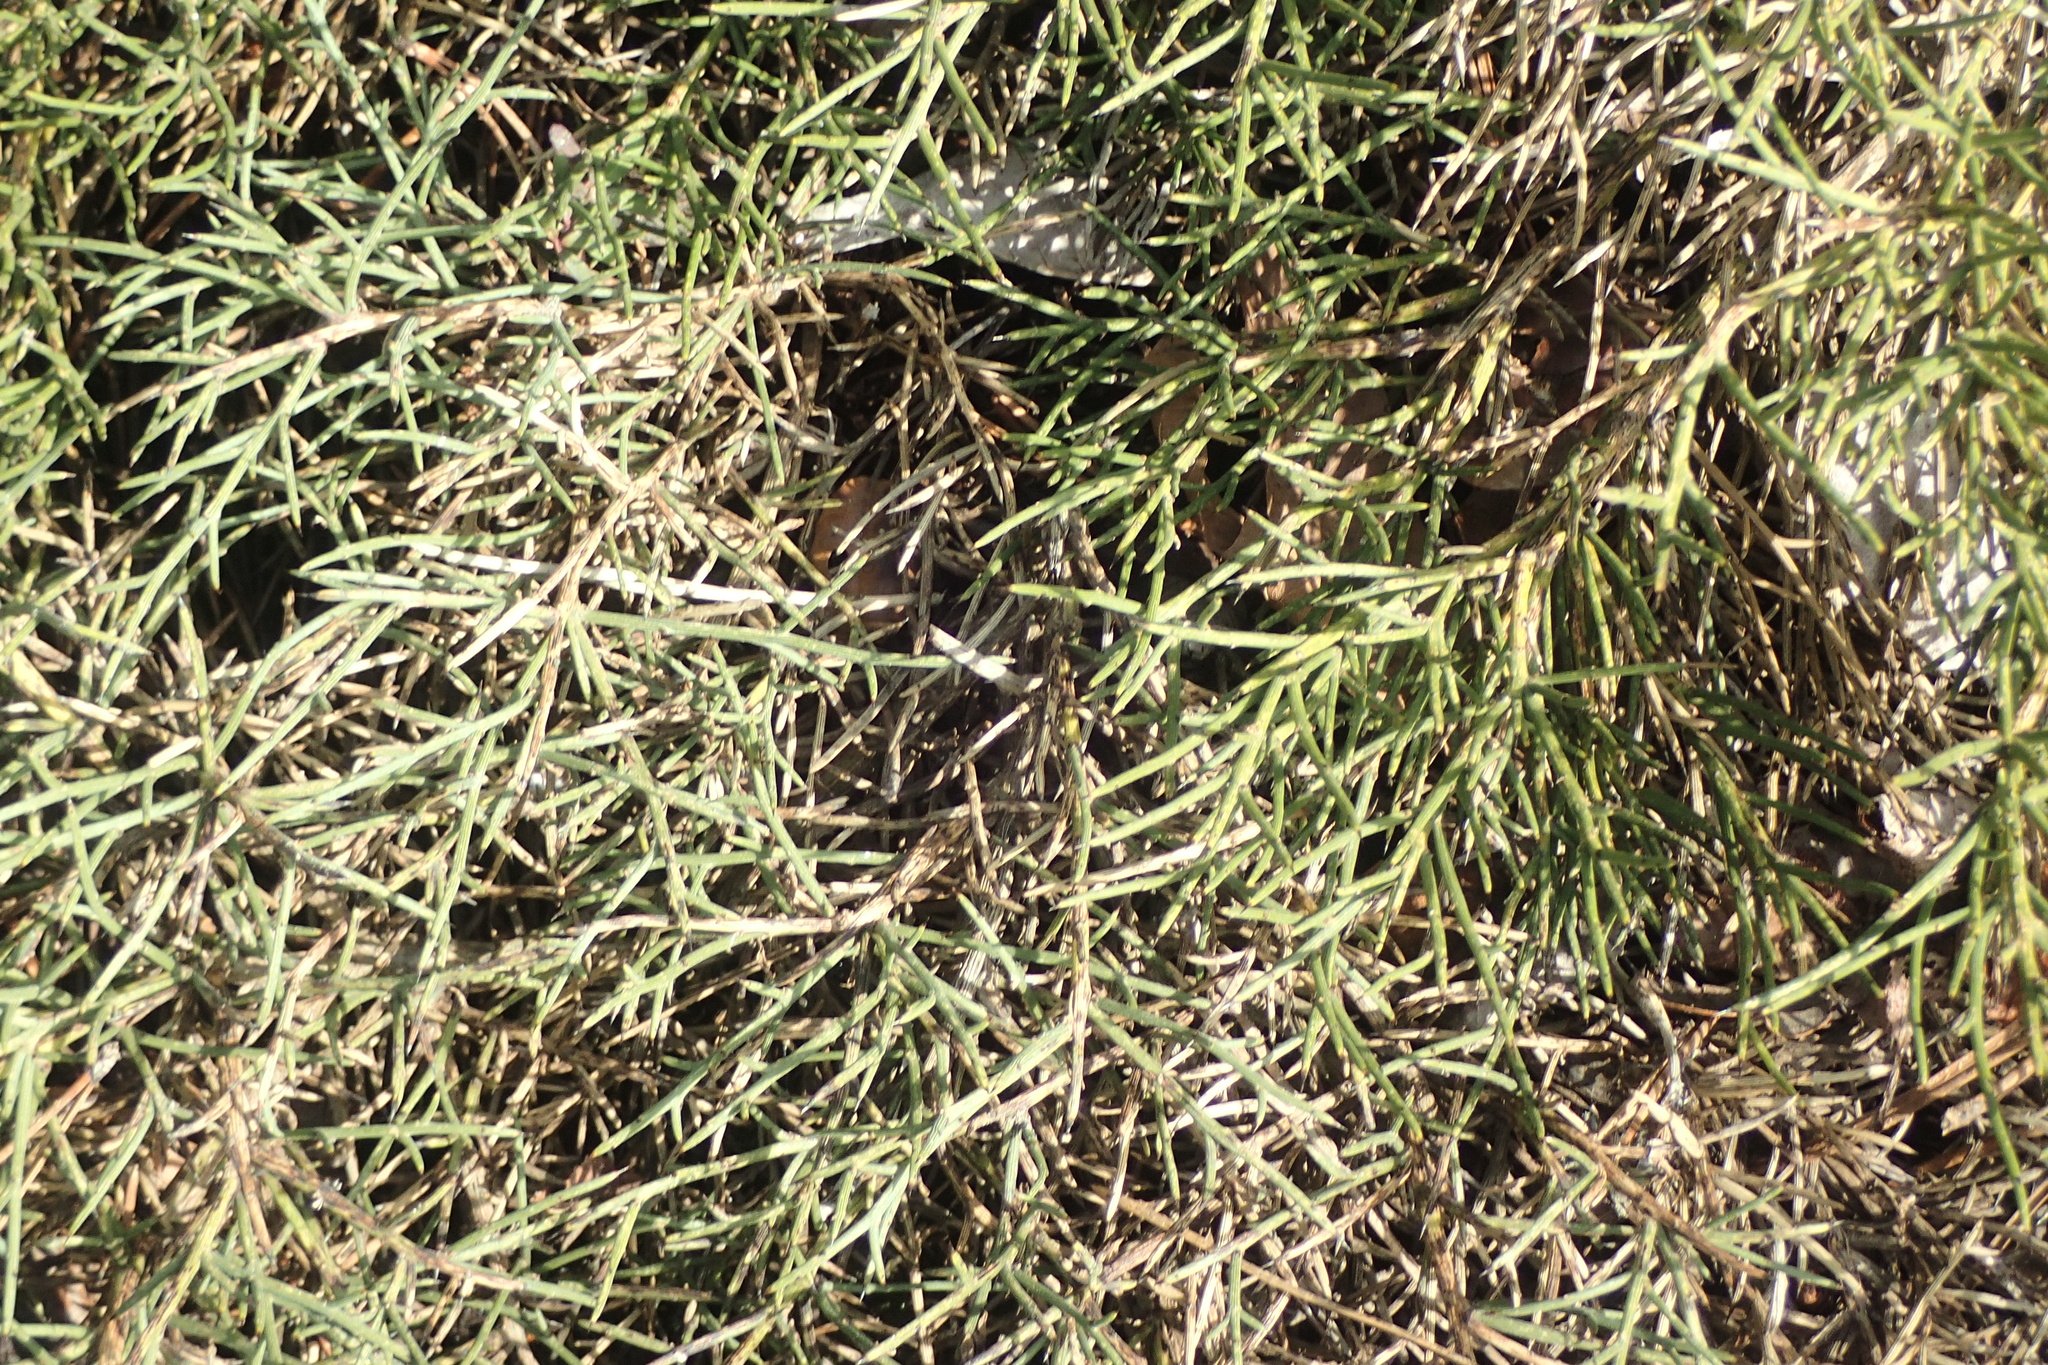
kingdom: Plantae
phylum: Tracheophyta
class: Magnoliopsida
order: Fabales
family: Fabaceae
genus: Genista
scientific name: Genista fasselata
